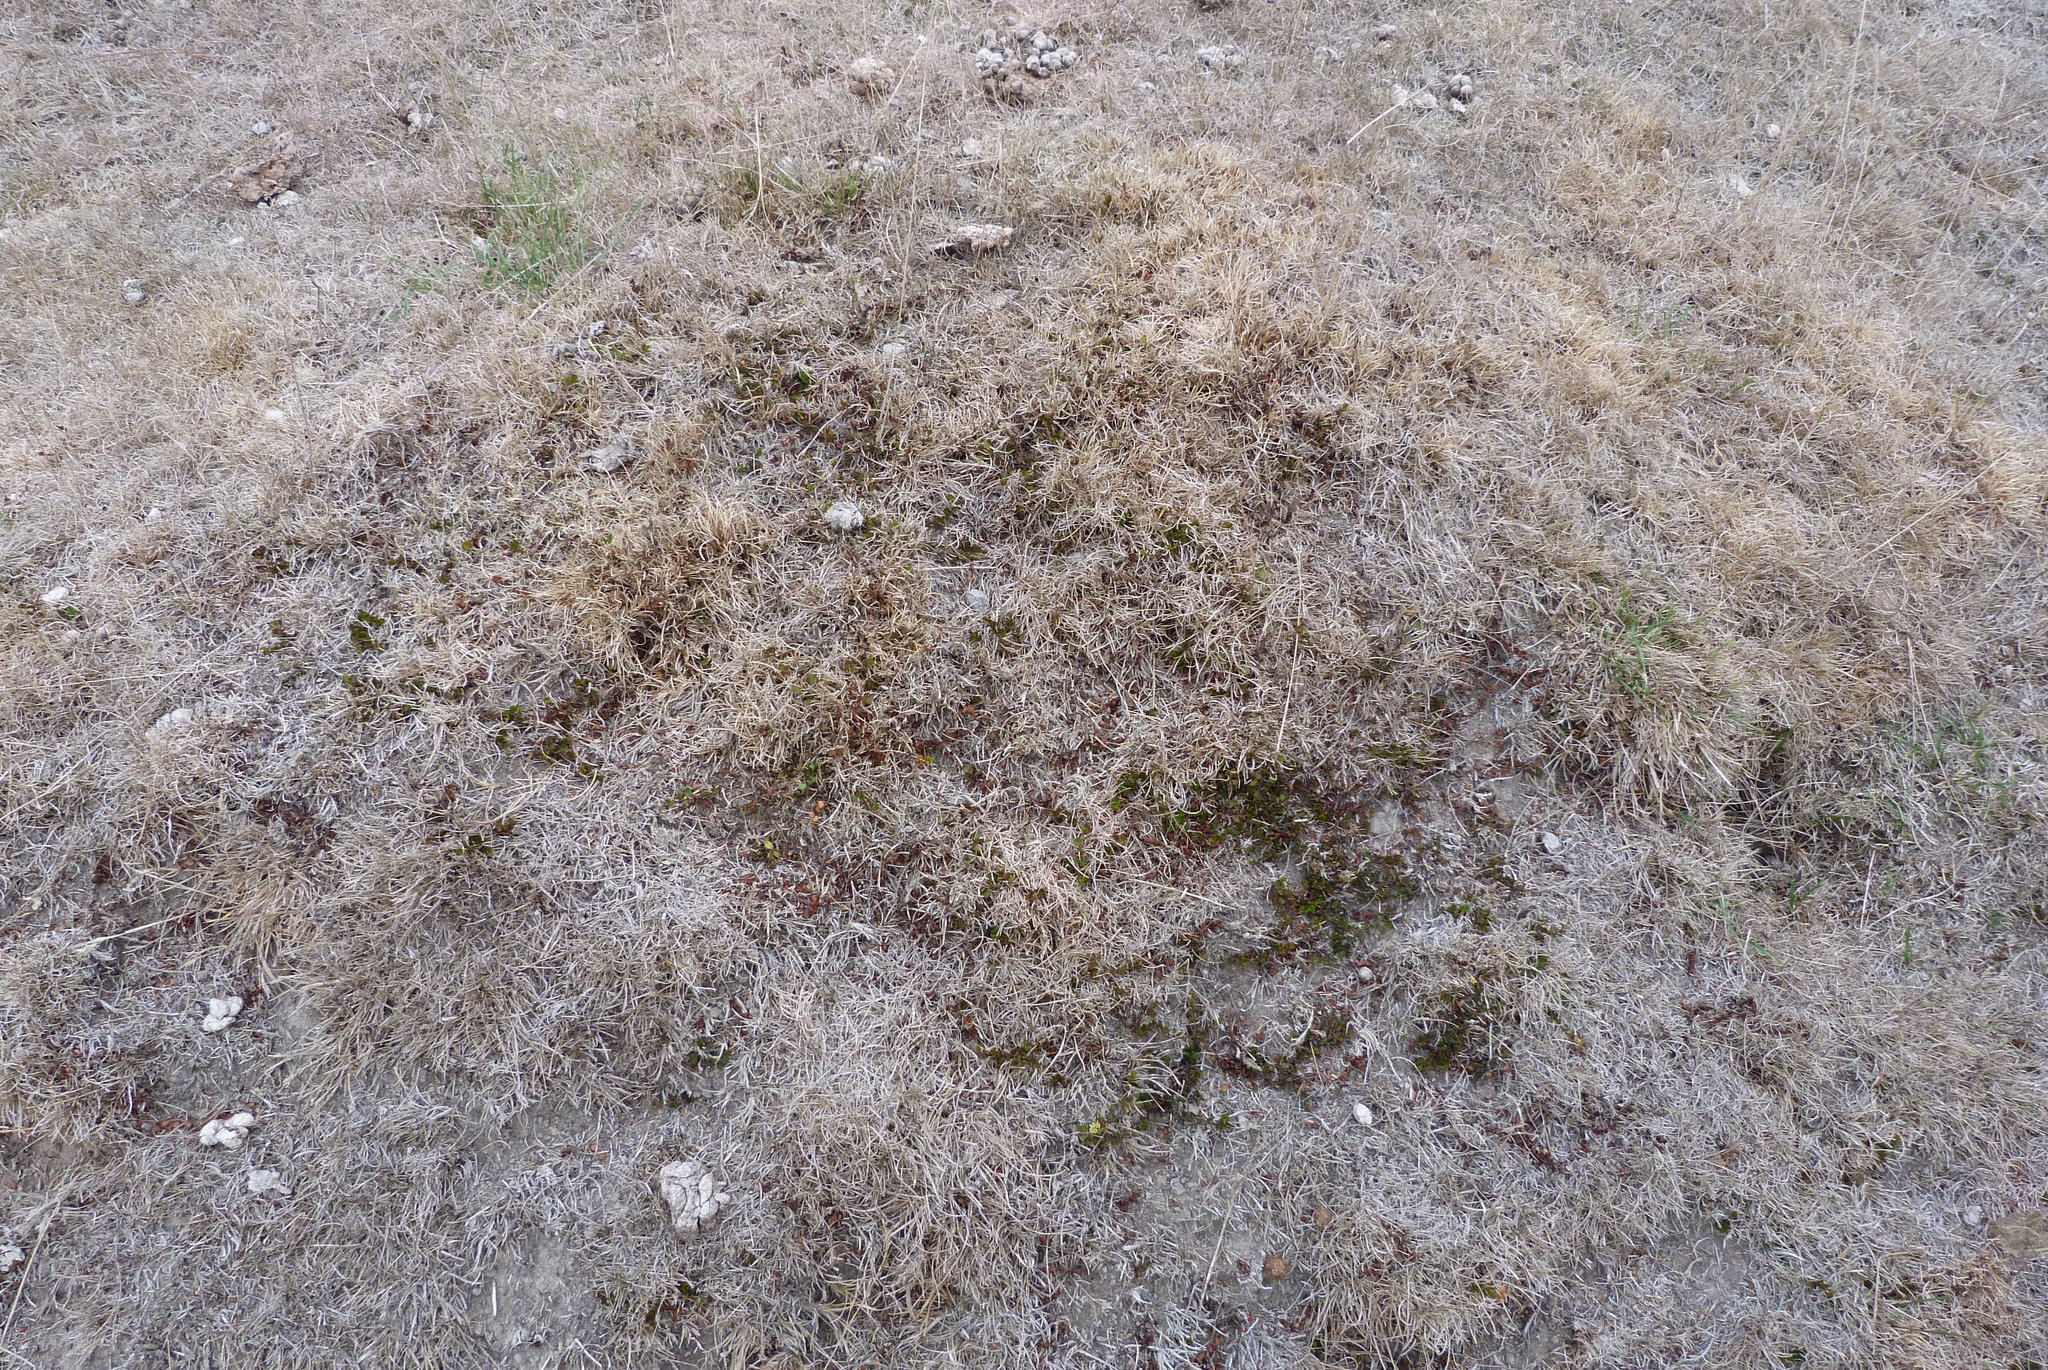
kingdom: Plantae
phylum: Tracheophyta
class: Magnoliopsida
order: Caryophyllales
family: Polygonaceae
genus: Muehlenbeckia
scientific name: Muehlenbeckia axillaris
